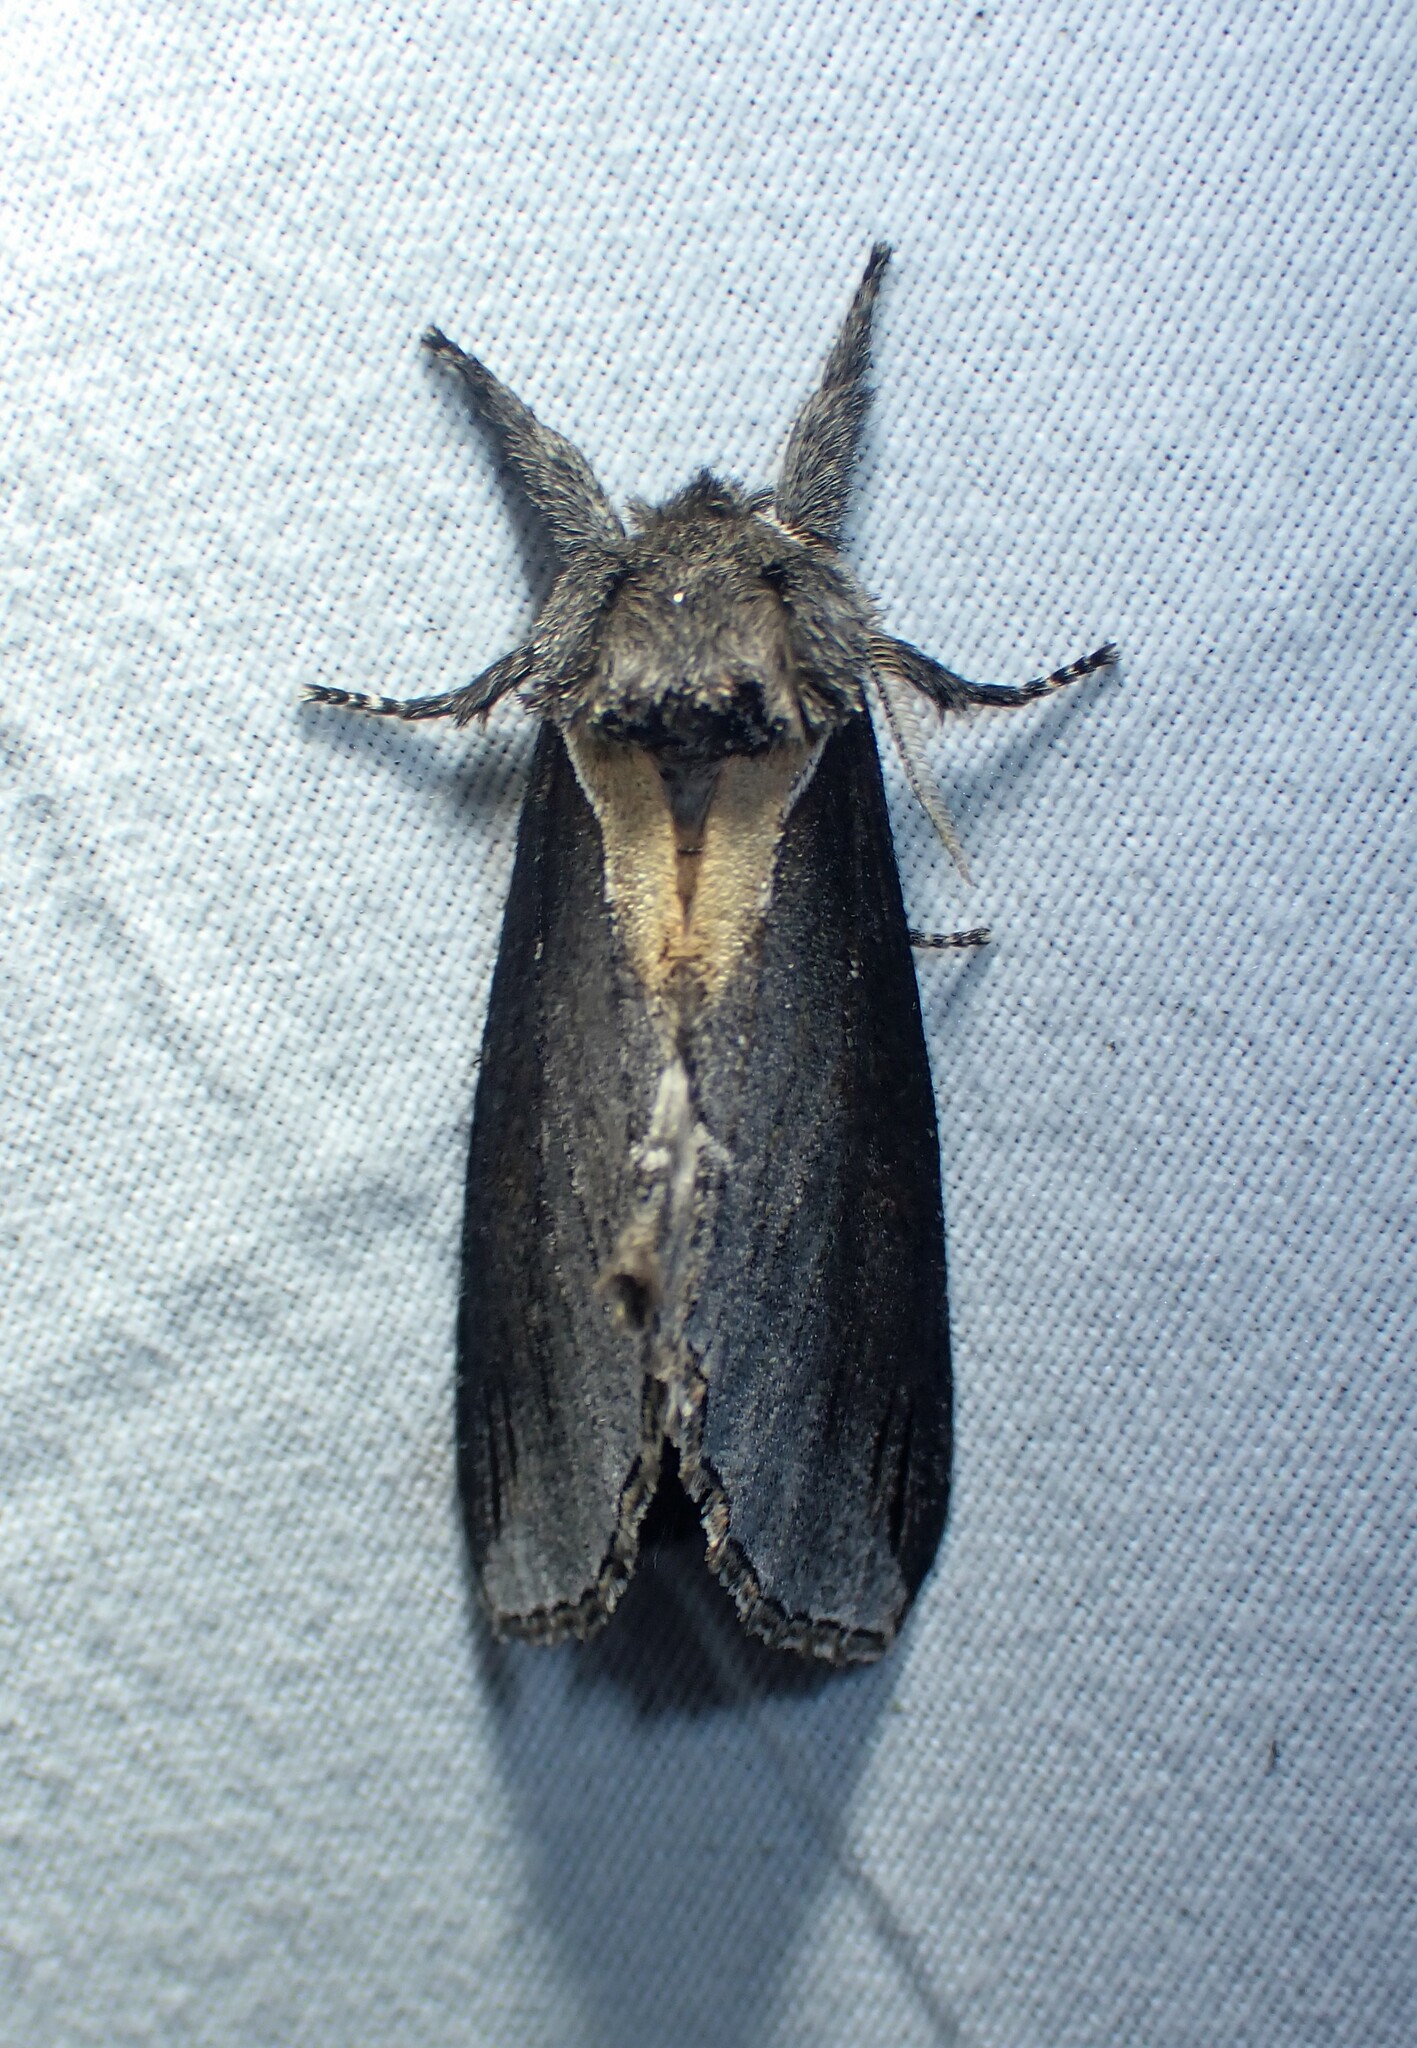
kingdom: Animalia
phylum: Arthropoda
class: Insecta
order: Lepidoptera
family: Notodontidae
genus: Pheosidea
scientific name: Pheosidea elegans
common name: Elegant prominent
